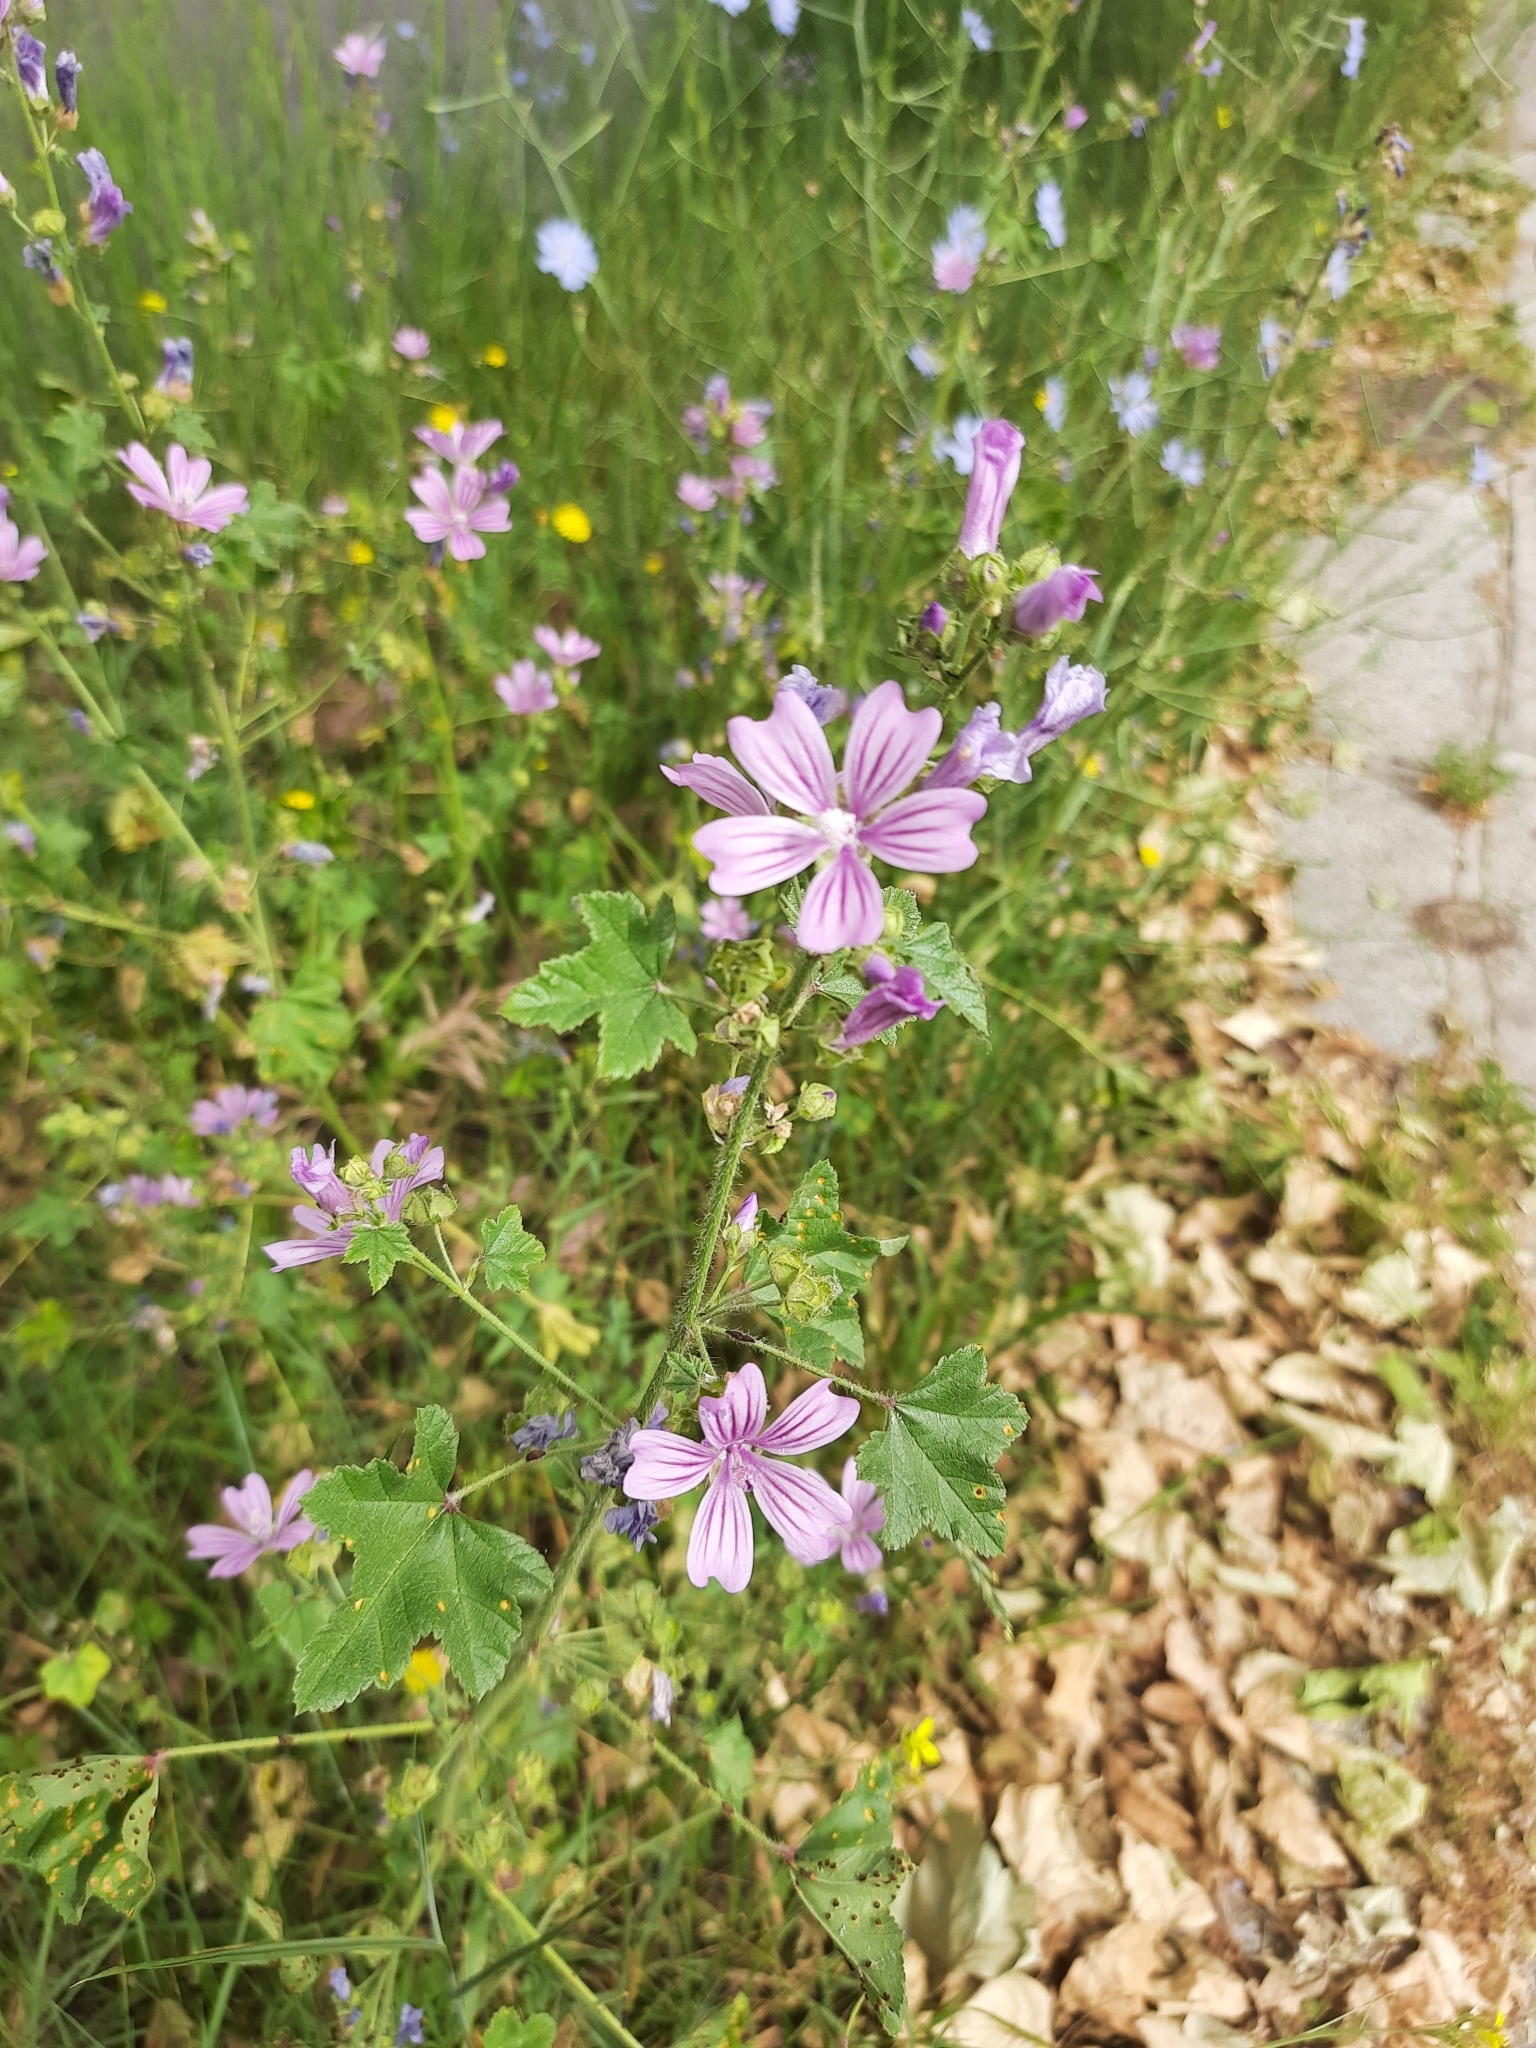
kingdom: Plantae
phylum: Tracheophyta
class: Magnoliopsida
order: Malvales
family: Malvaceae
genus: Malva
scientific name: Malva sylvestris
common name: Common mallow
